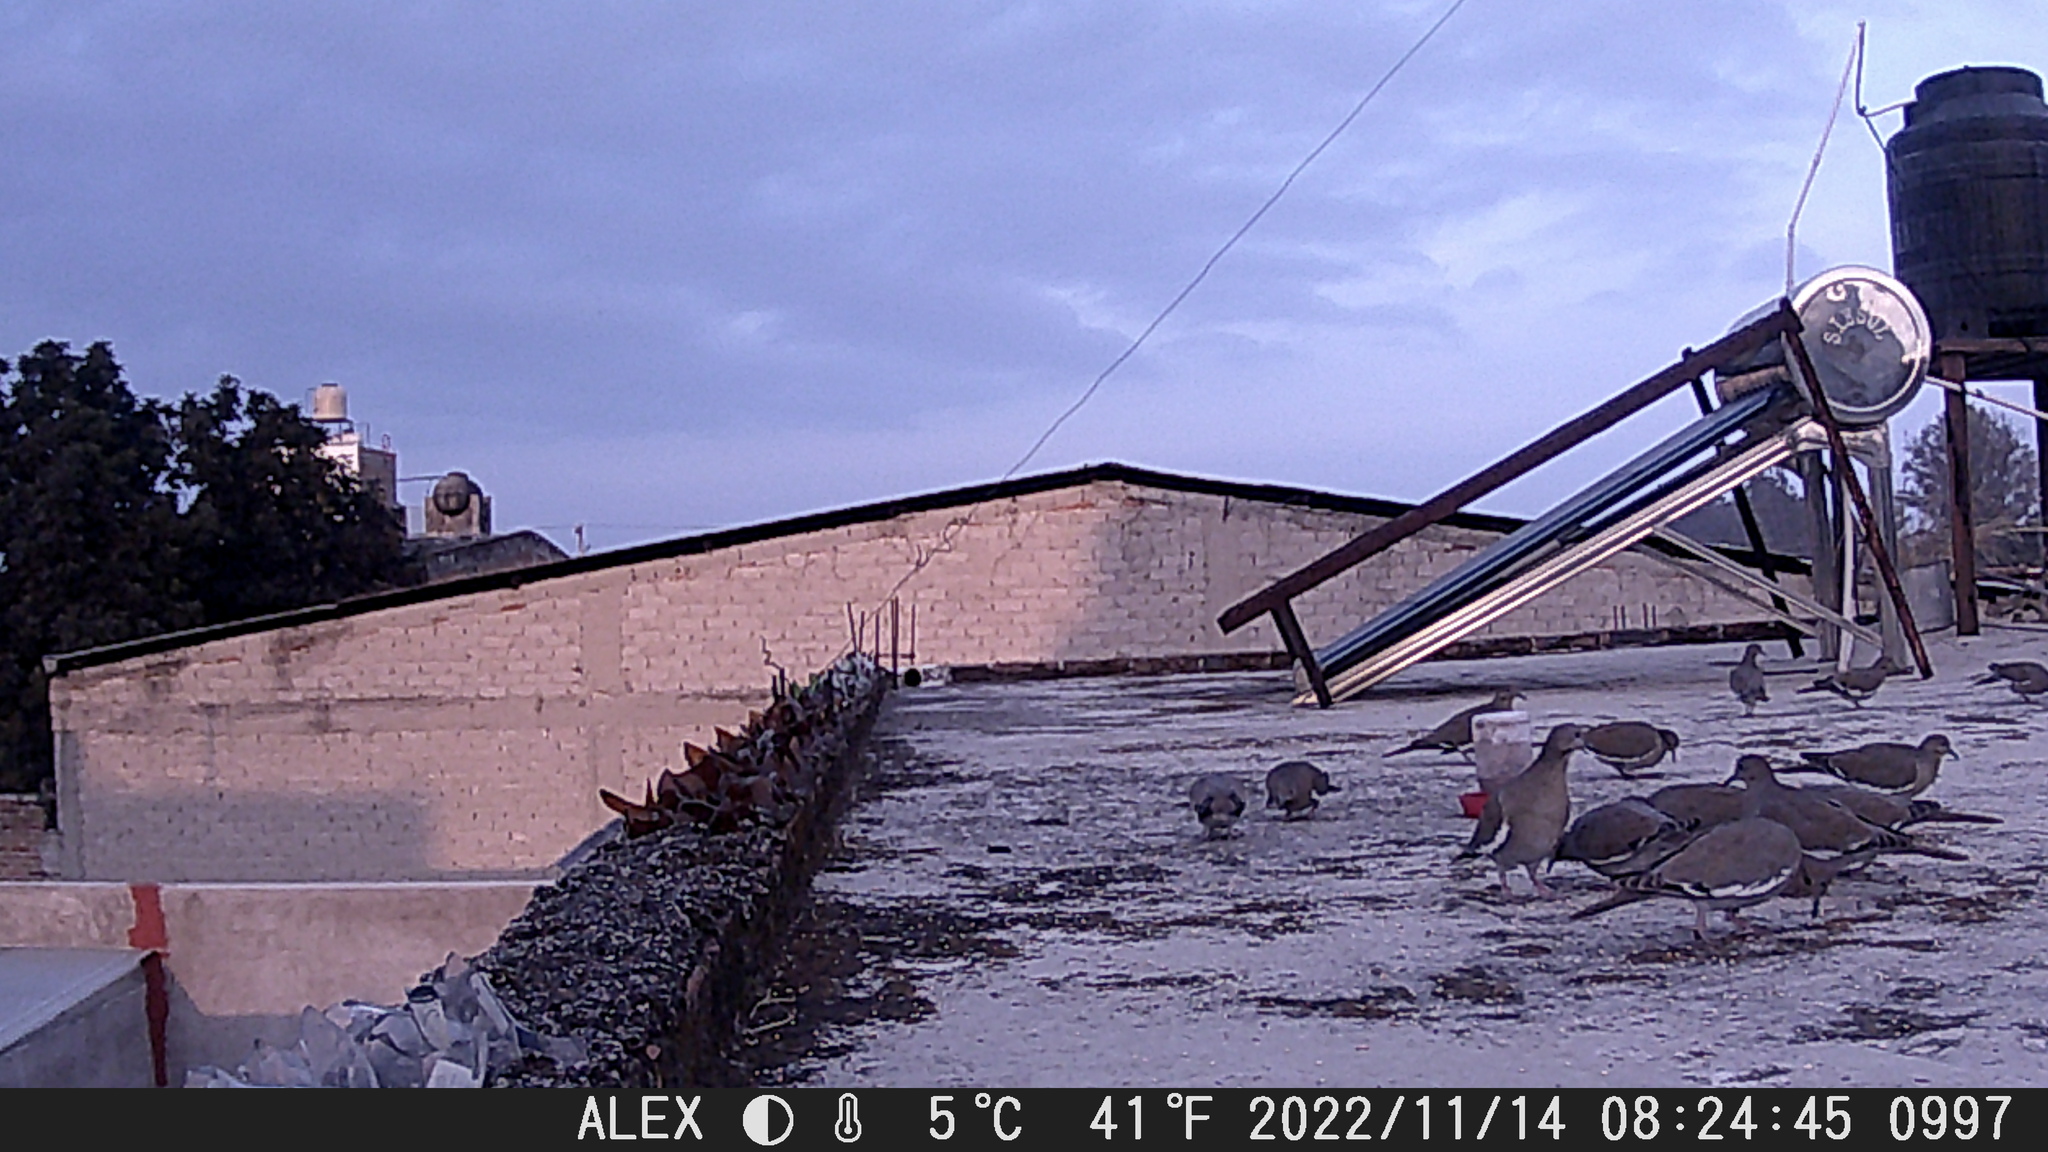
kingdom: Animalia
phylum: Chordata
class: Aves
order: Columbiformes
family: Columbidae
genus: Zenaida
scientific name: Zenaida asiatica
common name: White-winged dove
